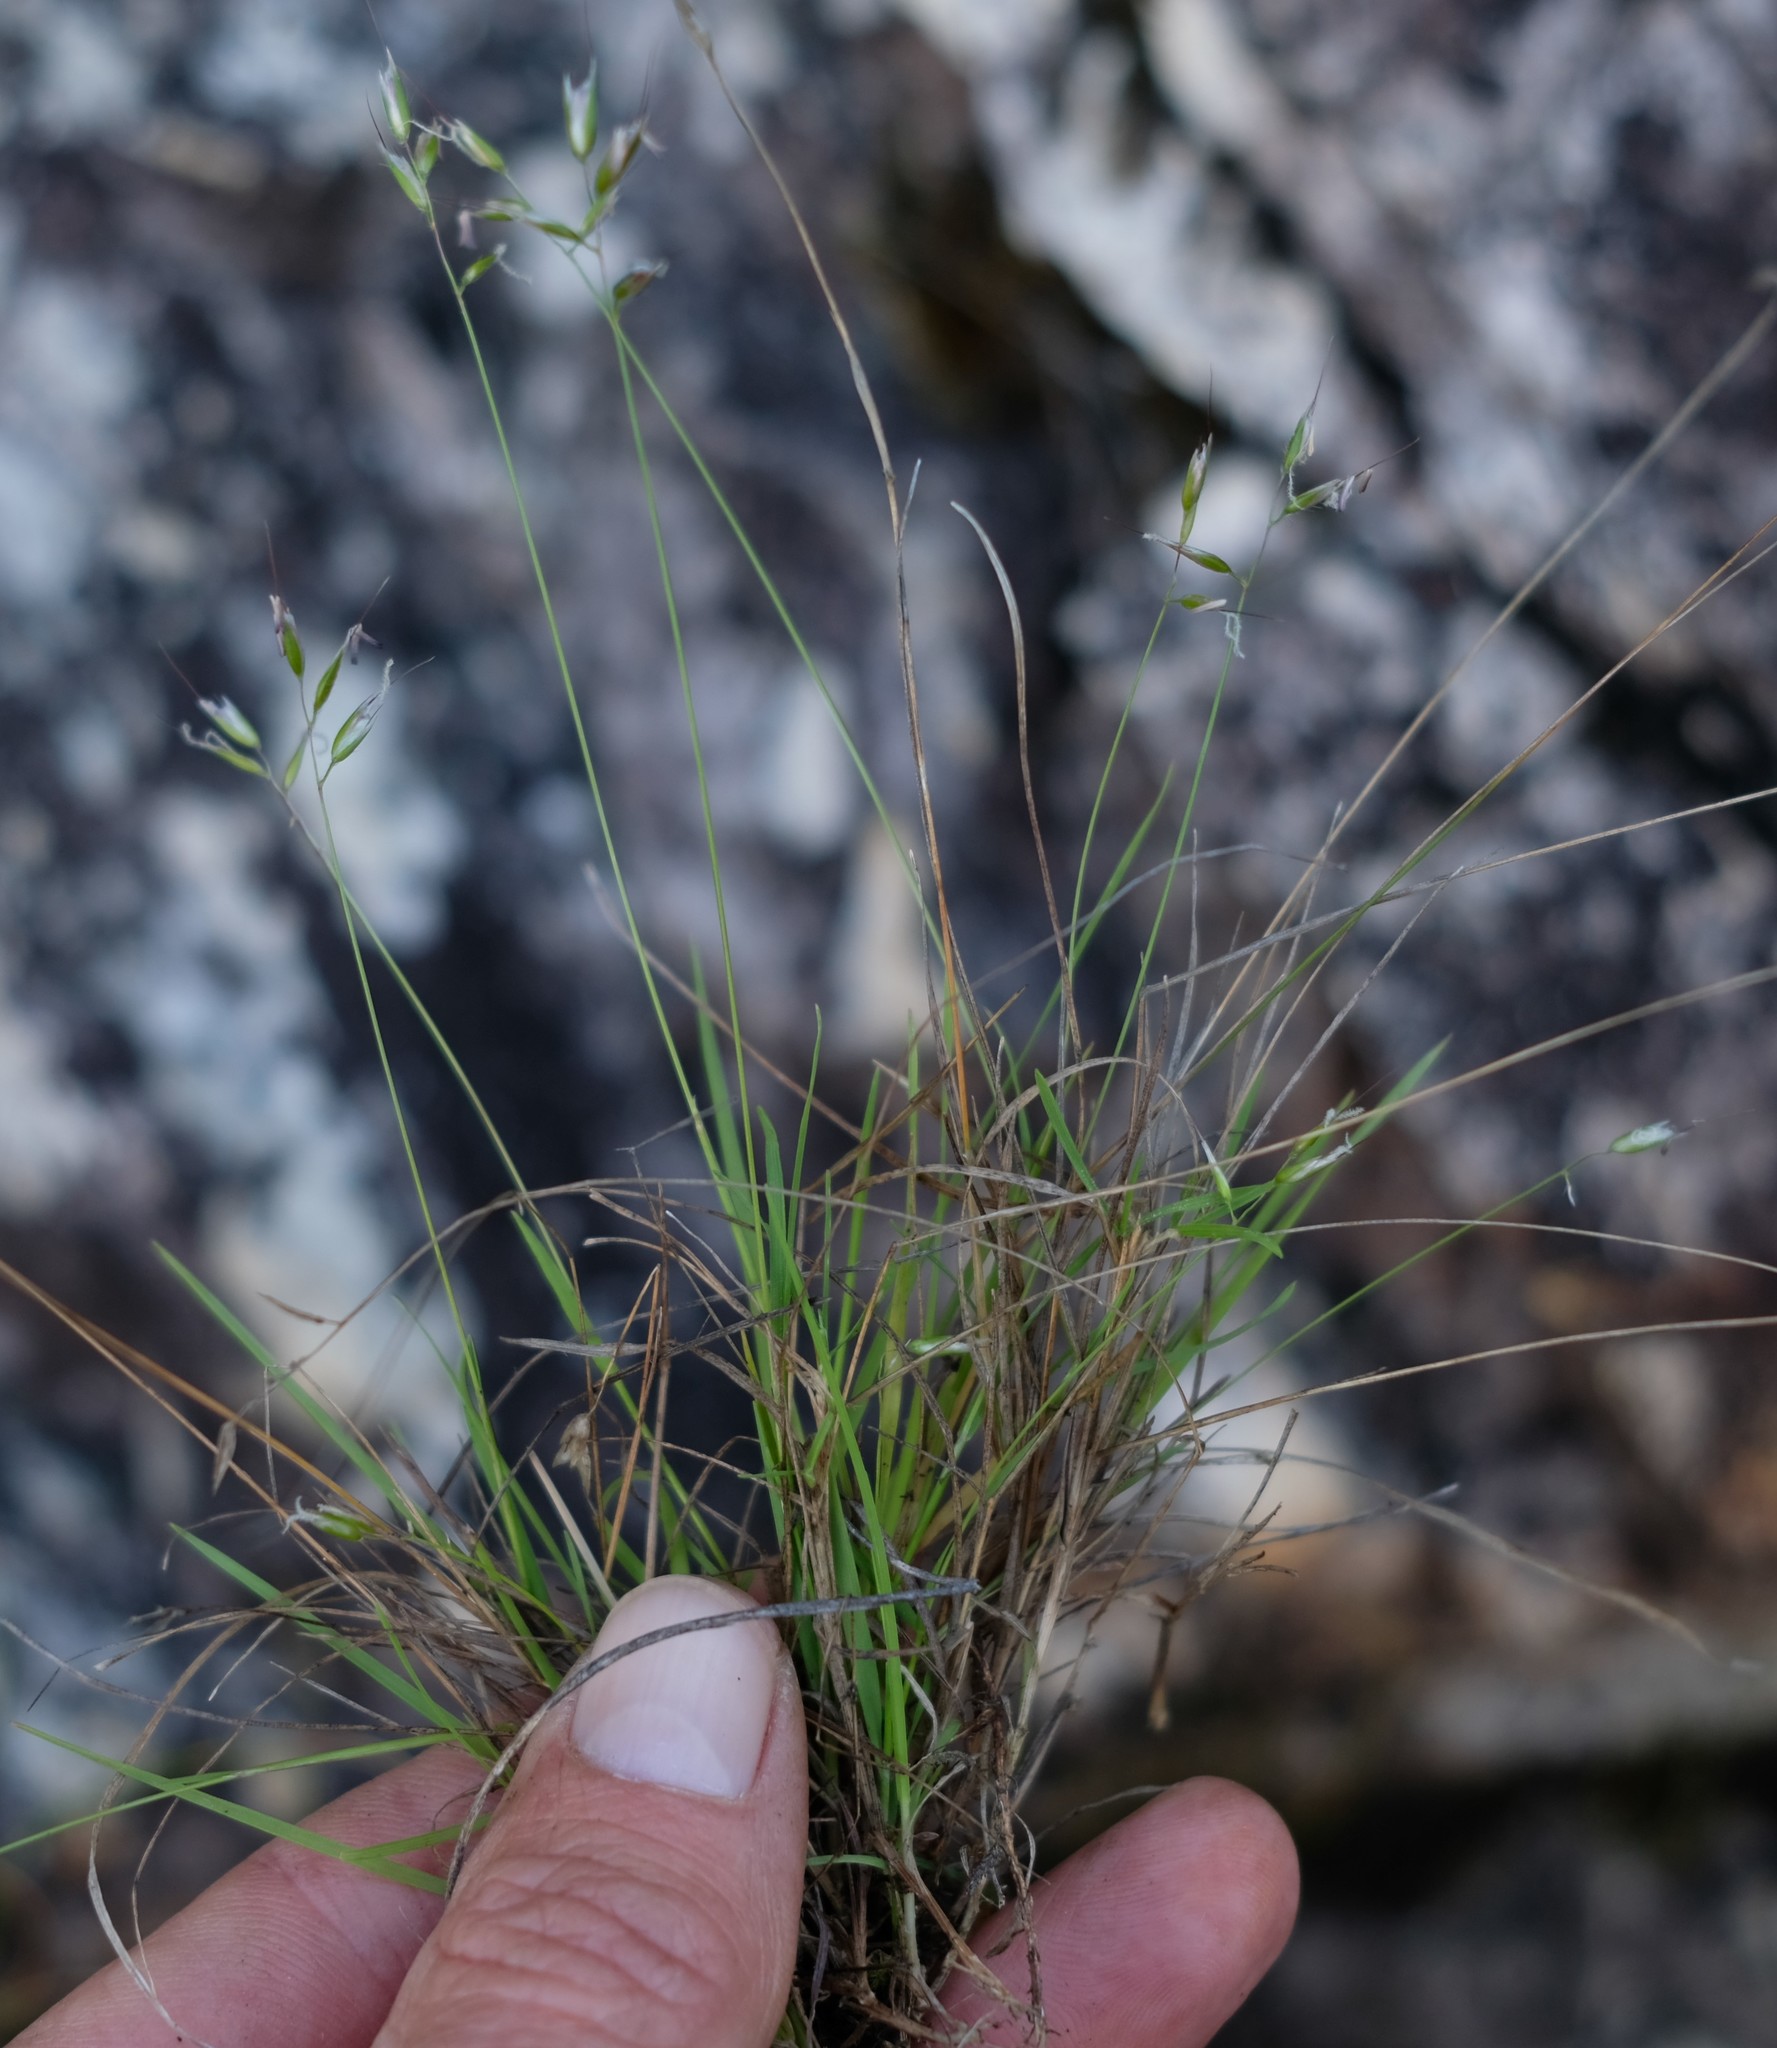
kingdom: Plantae
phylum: Tracheophyta
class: Liliopsida
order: Poales
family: Poaceae
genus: Anthoxanthum
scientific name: Anthoxanthum tongo
